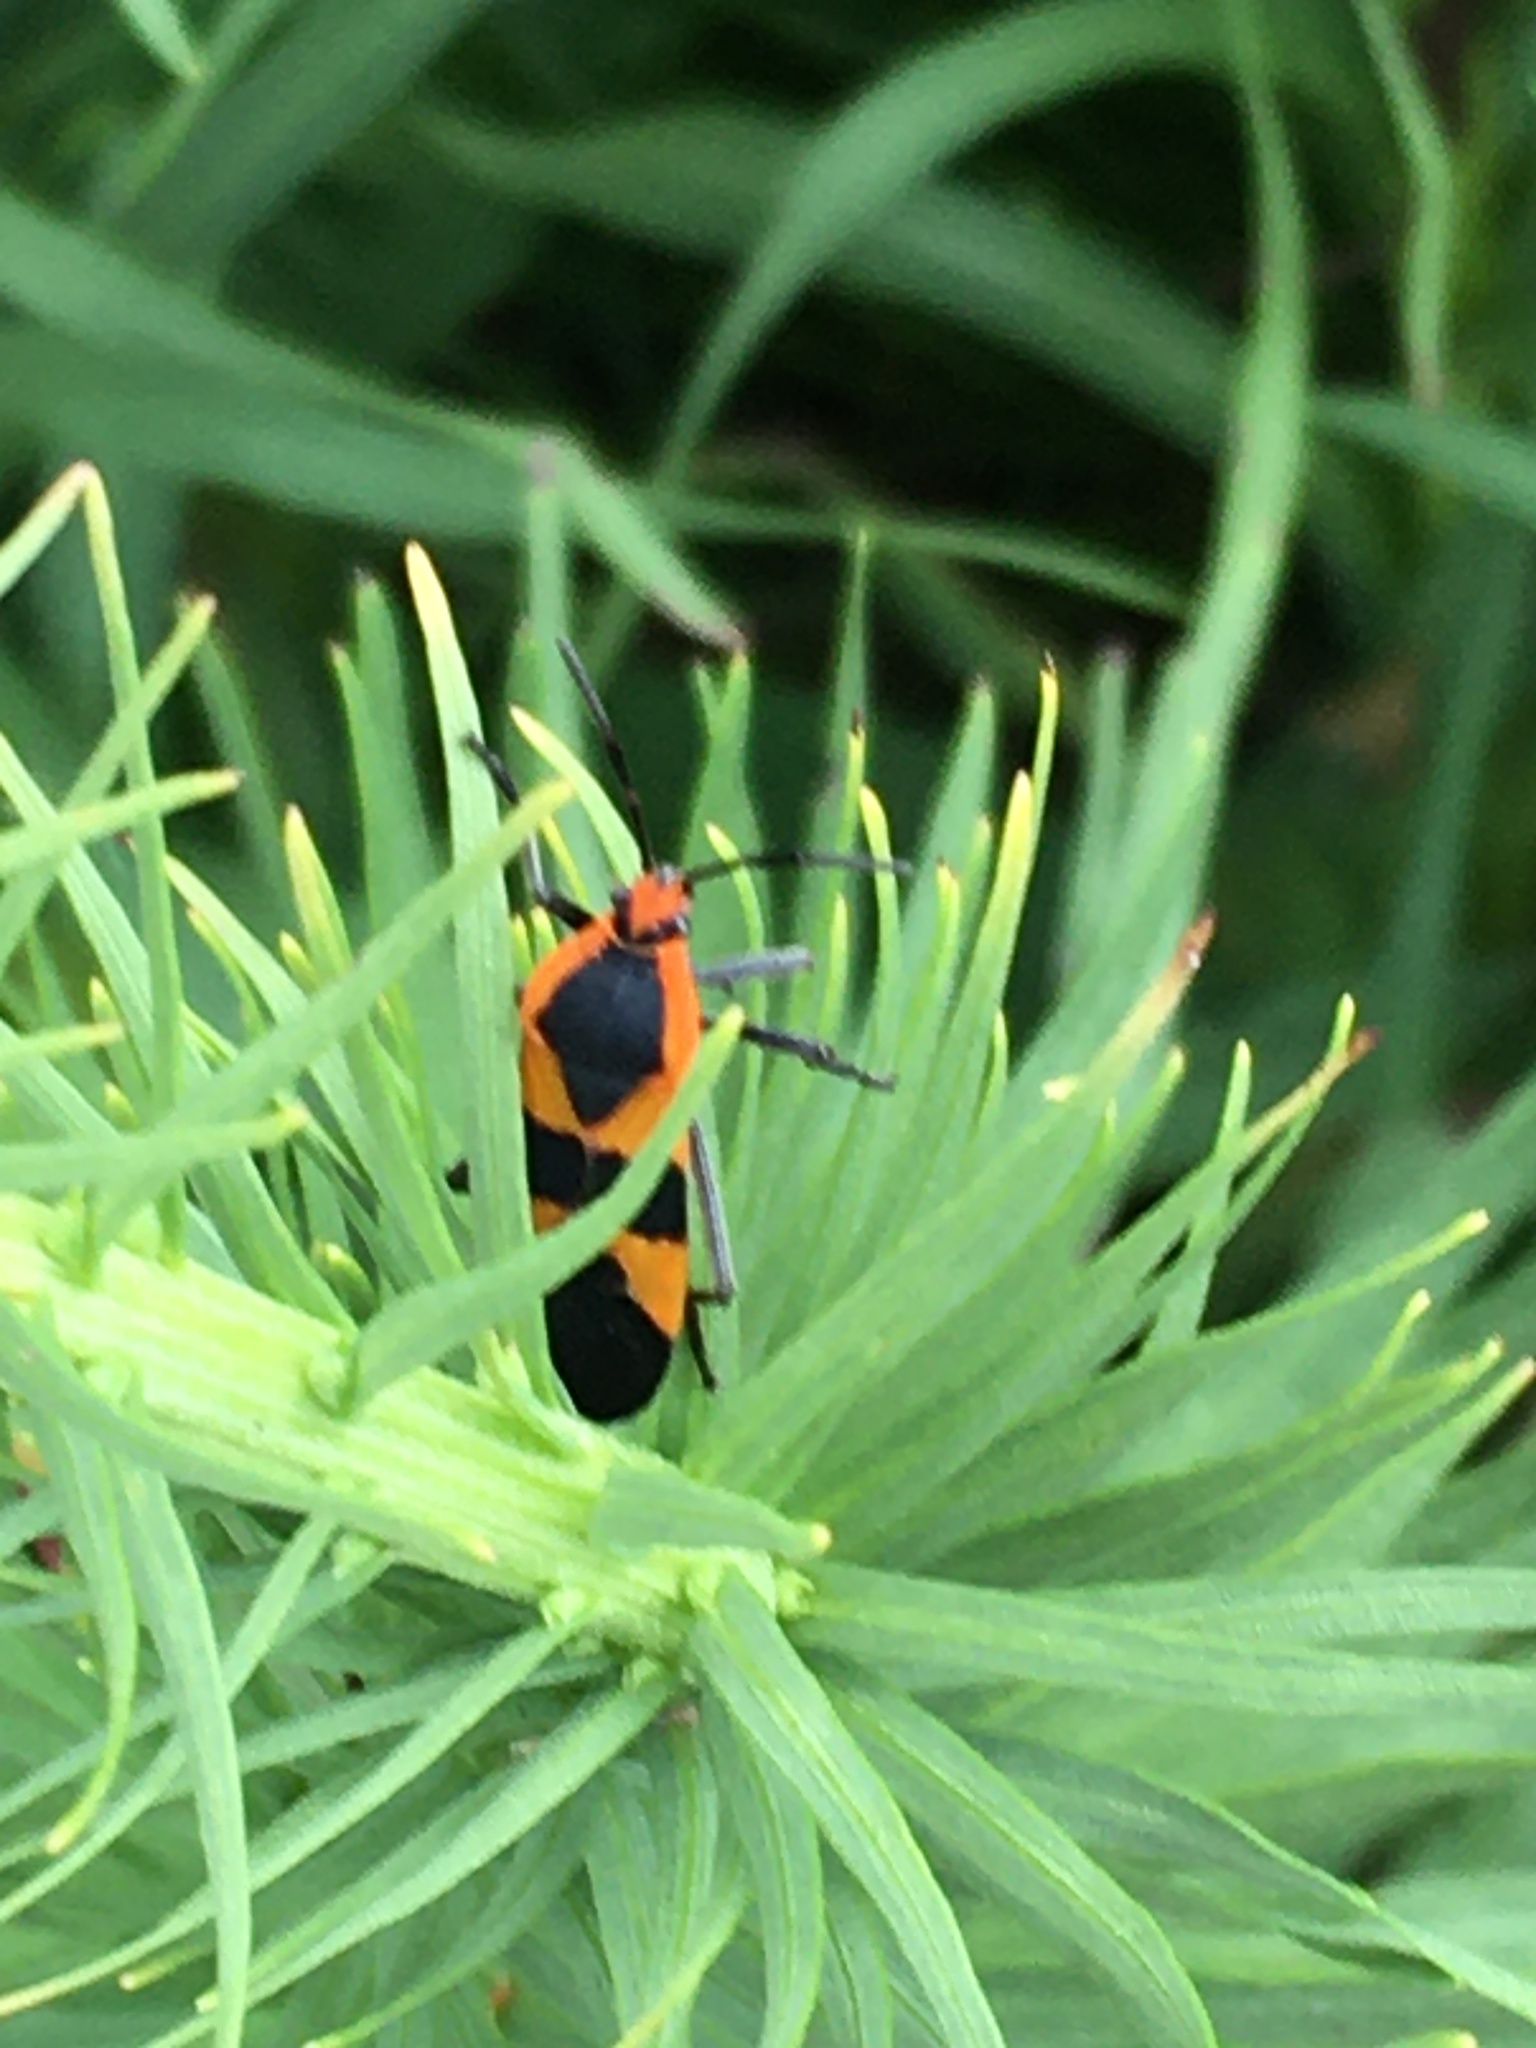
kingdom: Animalia
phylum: Arthropoda
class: Insecta
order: Hemiptera
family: Lygaeidae
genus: Oncopeltus
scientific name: Oncopeltus fasciatus
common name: Large milkweed bug
